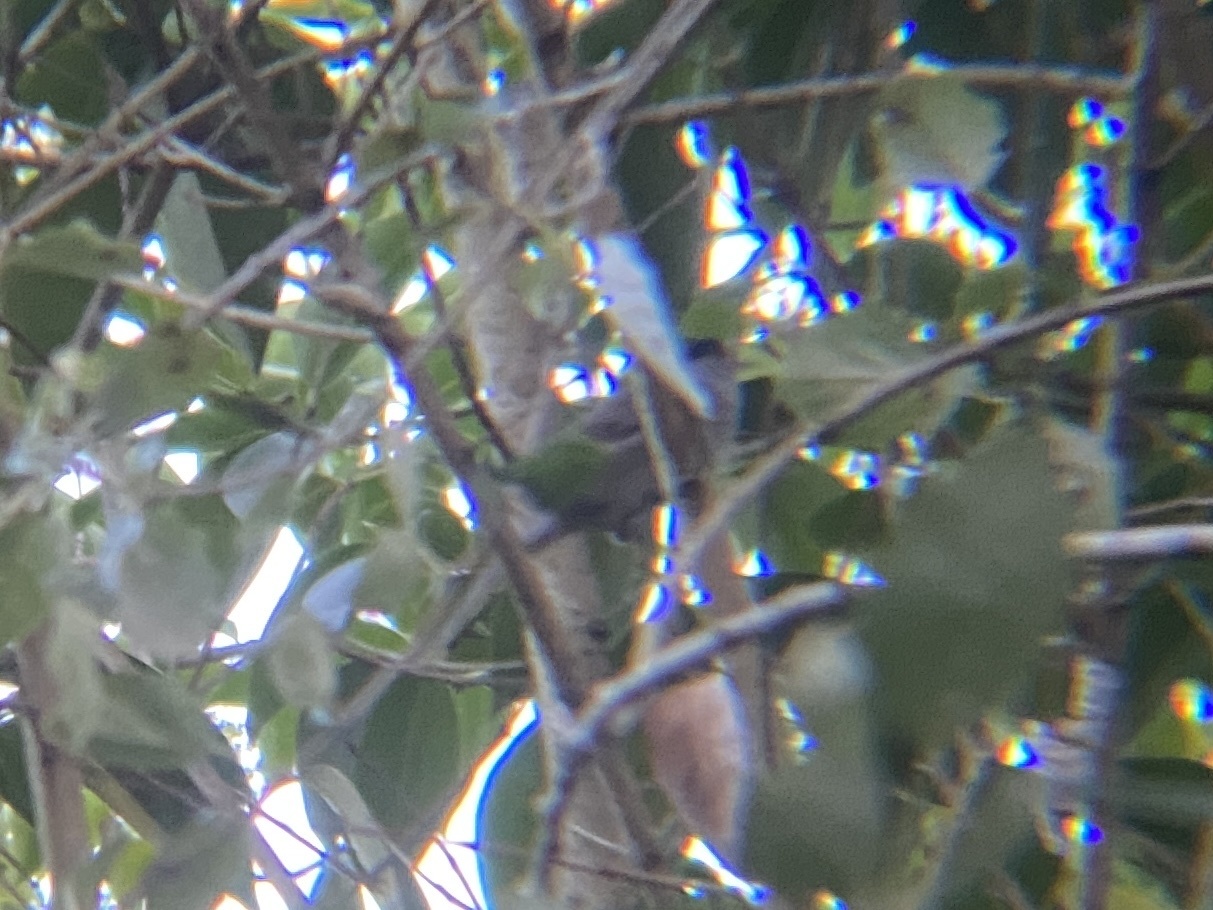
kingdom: Animalia
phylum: Chordata
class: Aves
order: Passeriformes
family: Sylviidae
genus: Sylvia
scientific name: Sylvia atricapilla
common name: Eurasian blackcap
